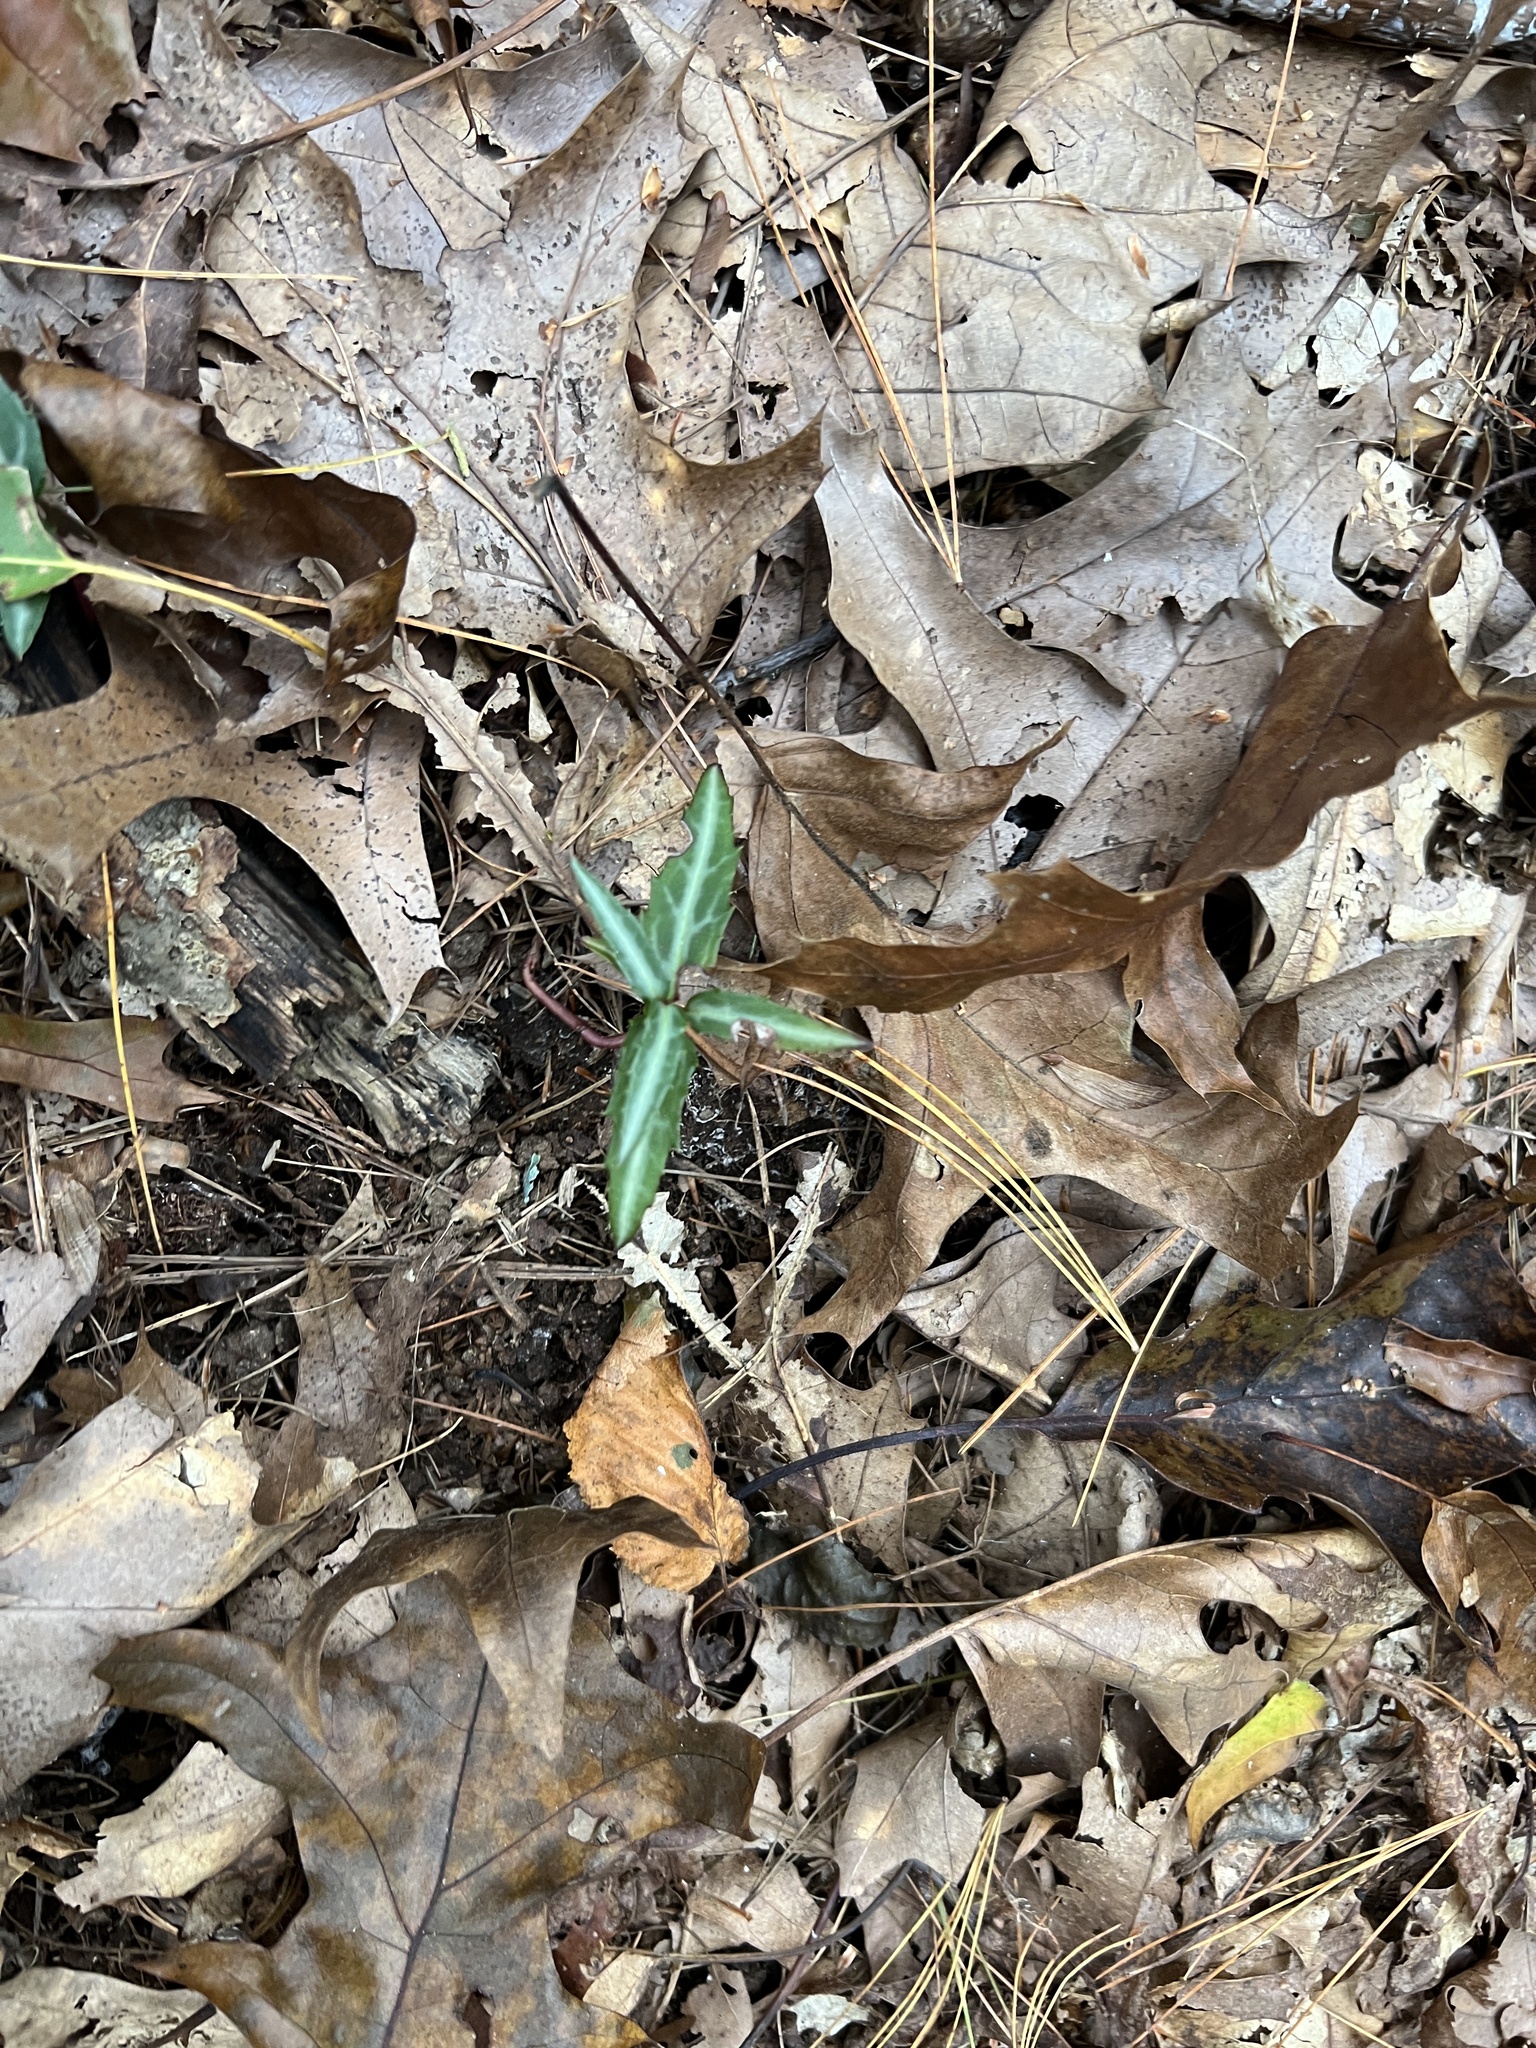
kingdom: Plantae
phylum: Tracheophyta
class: Magnoliopsida
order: Ericales
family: Ericaceae
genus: Chimaphila
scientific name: Chimaphila maculata
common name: Spotted pipsissewa
